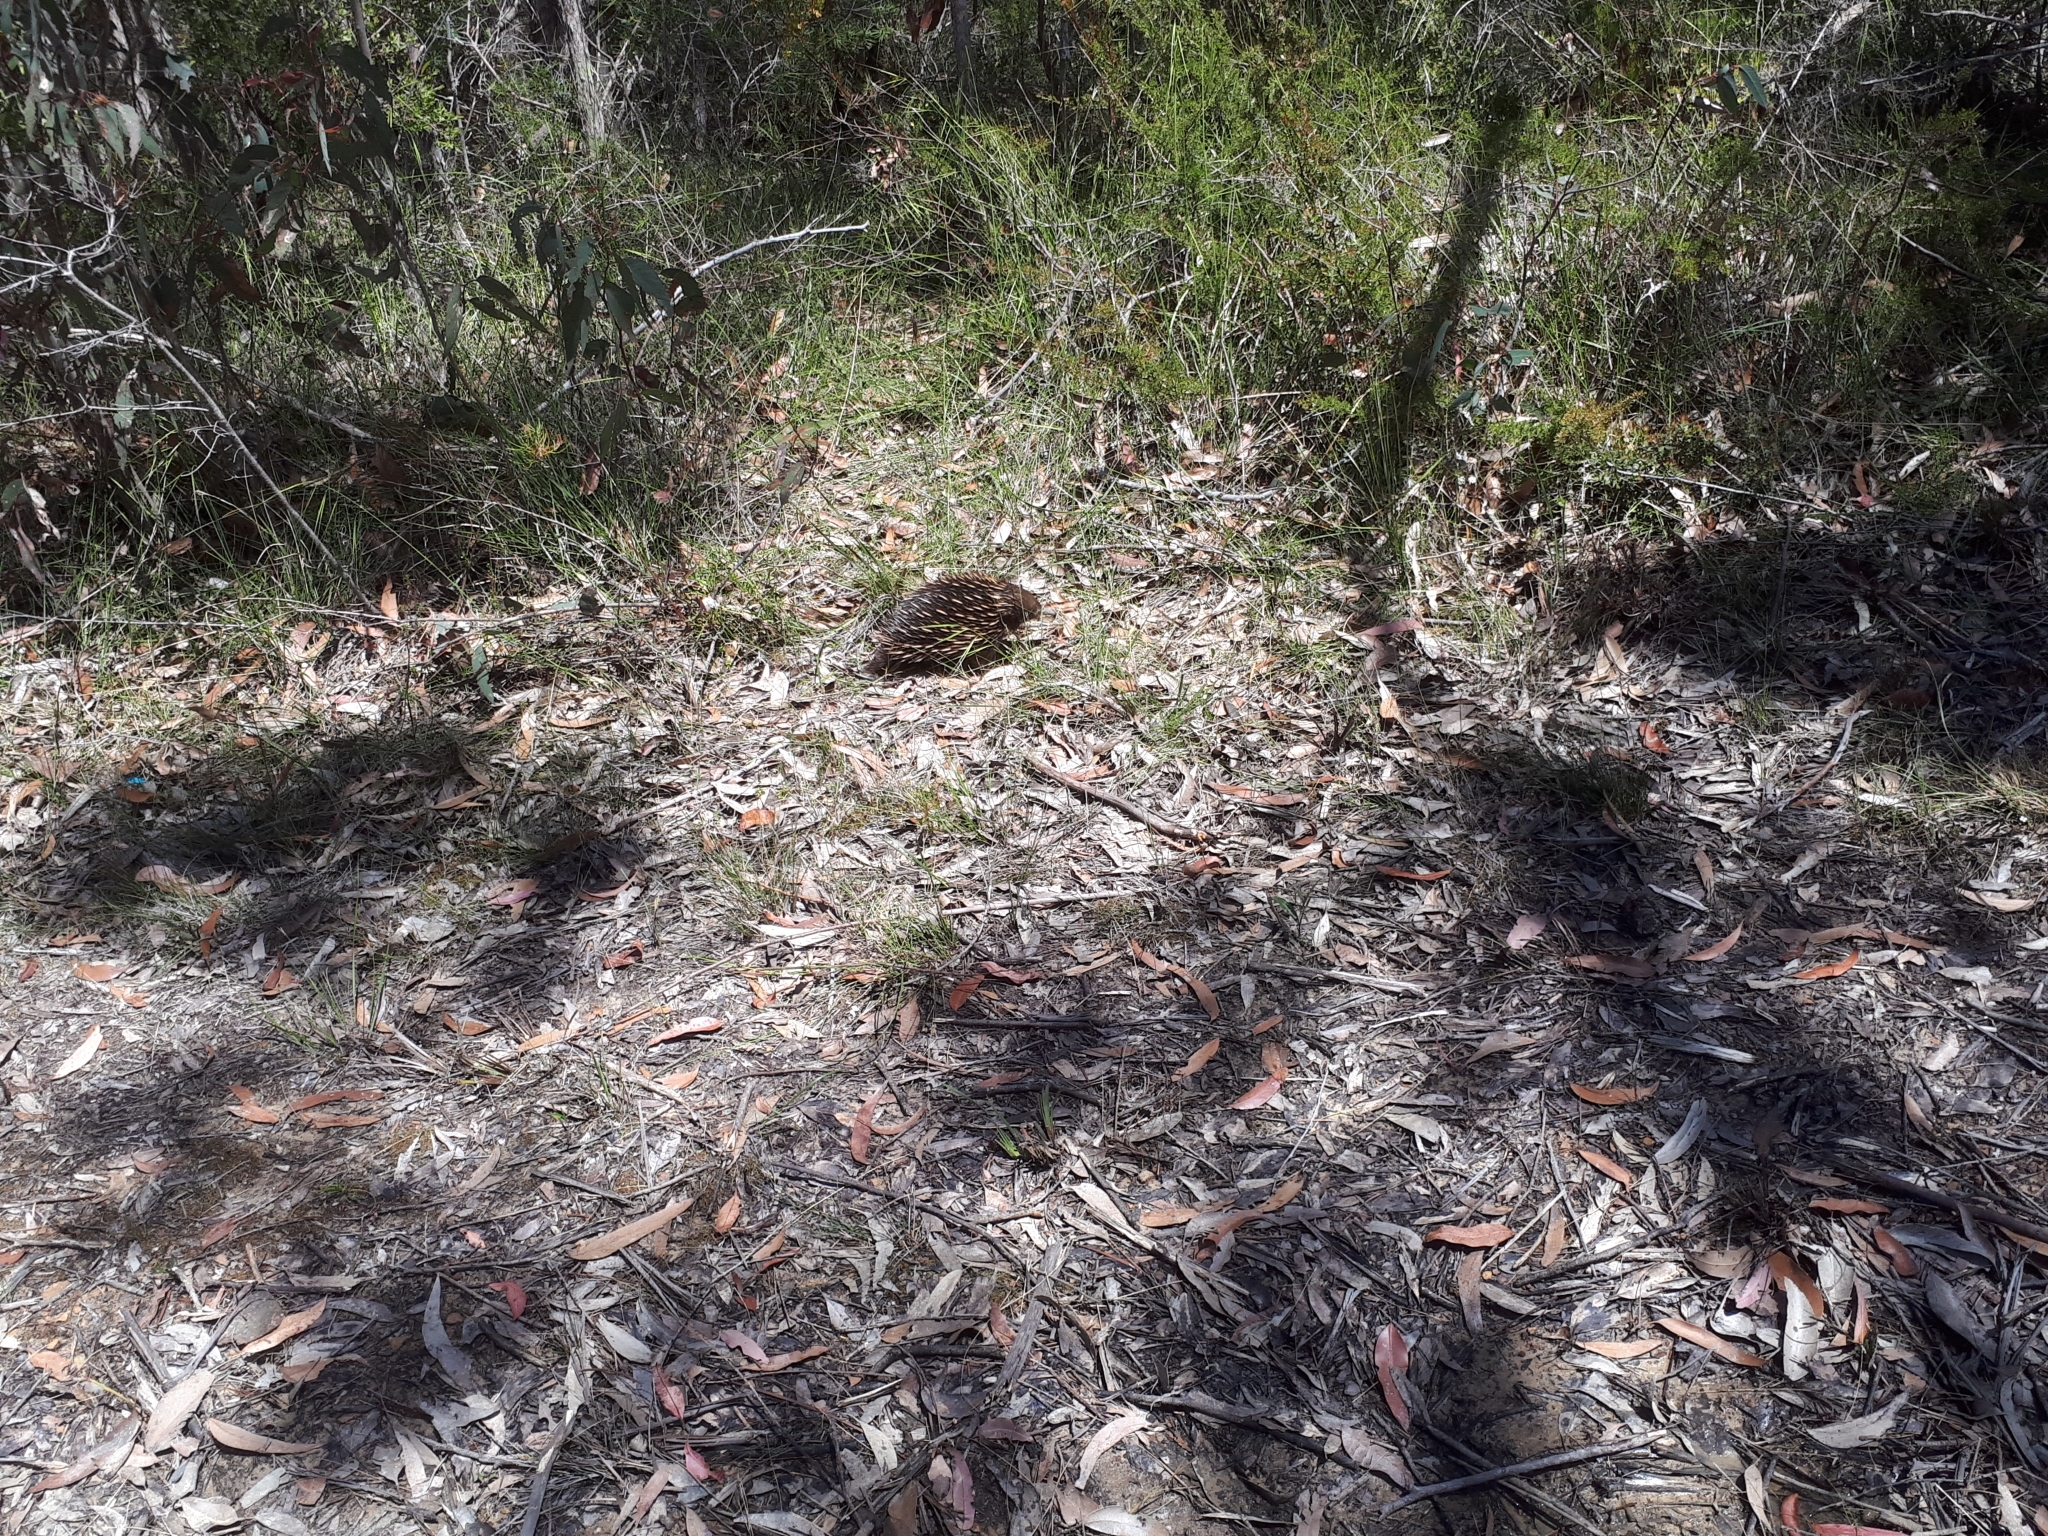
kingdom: Animalia
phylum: Chordata
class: Mammalia
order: Monotremata
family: Tachyglossidae
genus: Tachyglossus
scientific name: Tachyglossus aculeatus
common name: Short-beaked echidna
